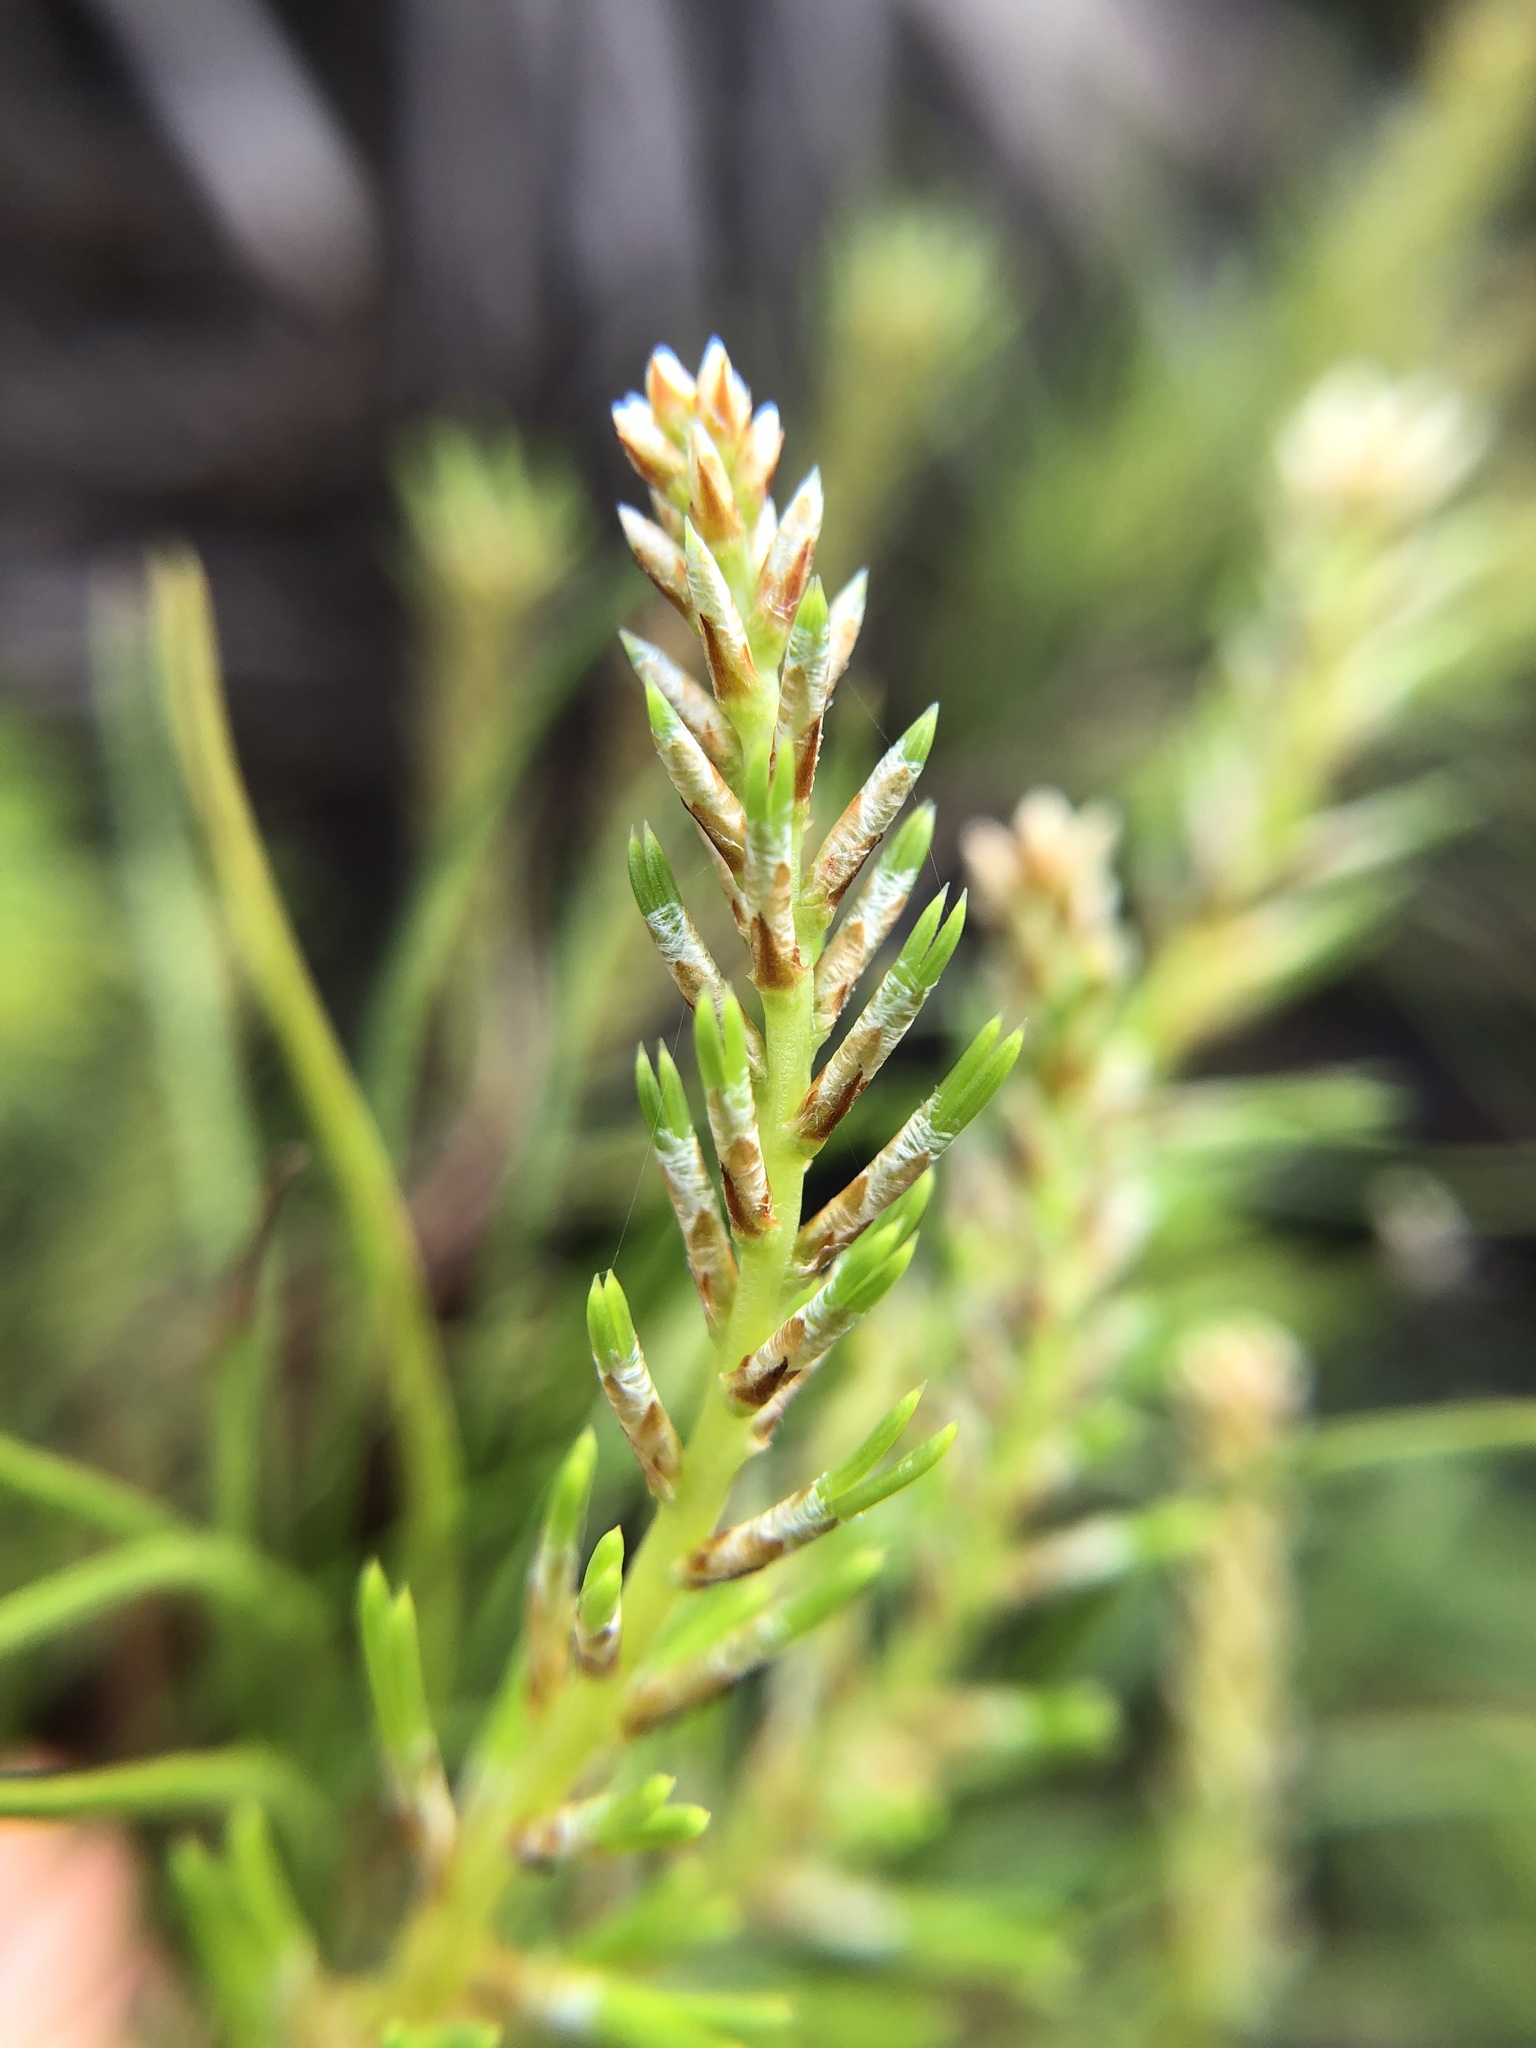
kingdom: Plantae
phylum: Tracheophyta
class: Pinopsida
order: Pinales
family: Pinaceae
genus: Pinus
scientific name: Pinus clausa
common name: Sand pine
